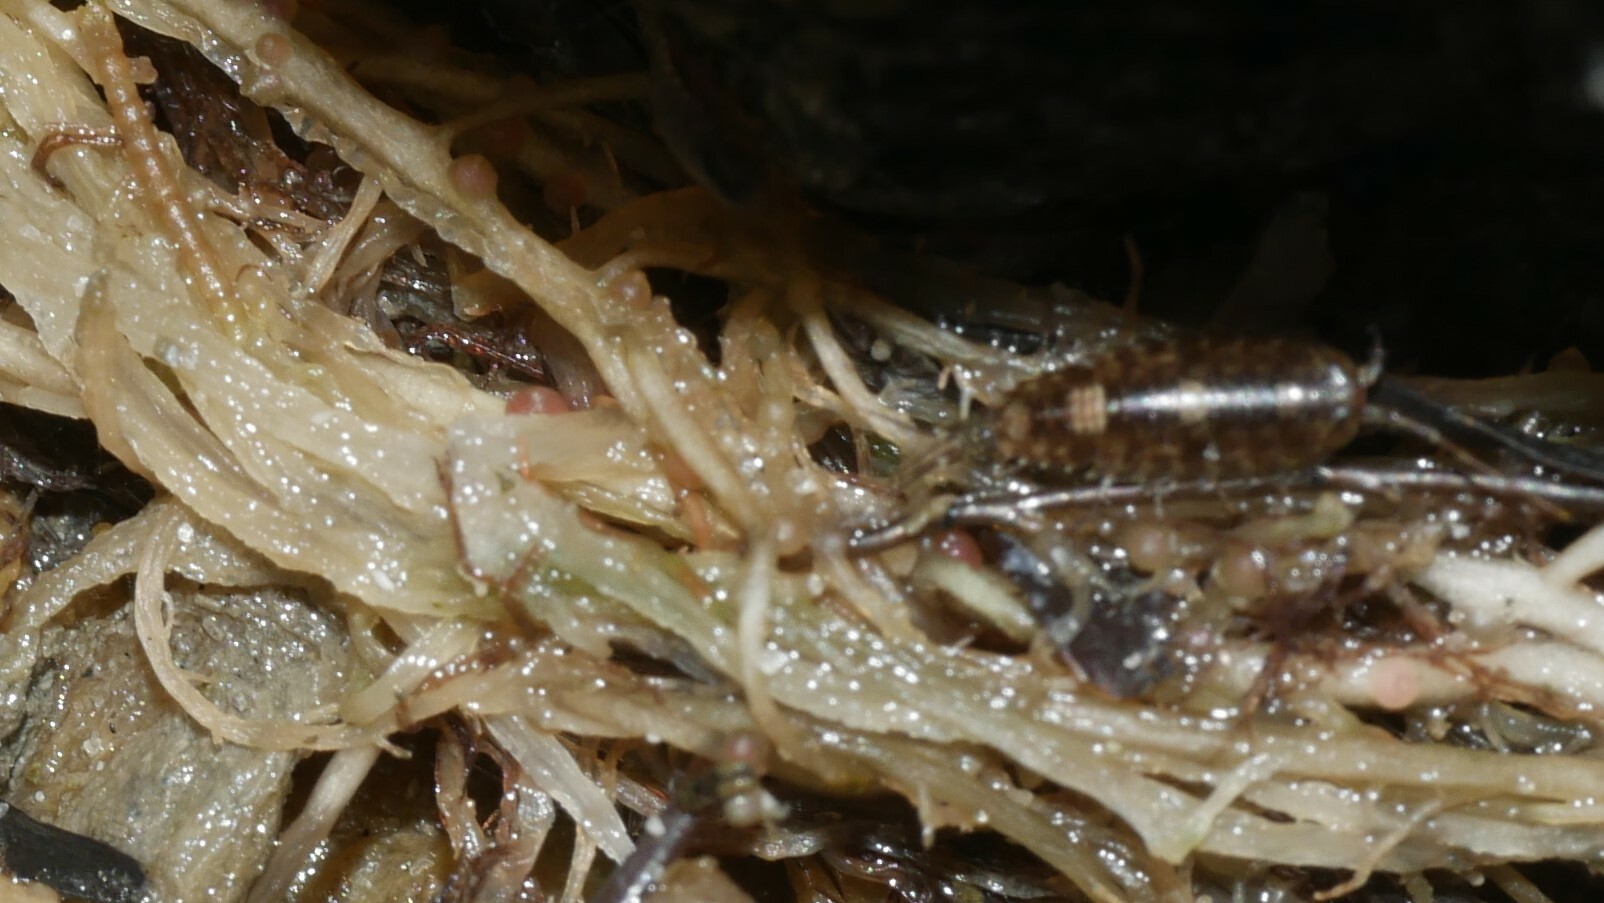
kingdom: Animalia
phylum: Arthropoda
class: Malacostraca
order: Isopoda
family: Ligiidae
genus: Ligia
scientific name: Ligia exotica
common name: Wharf roach
